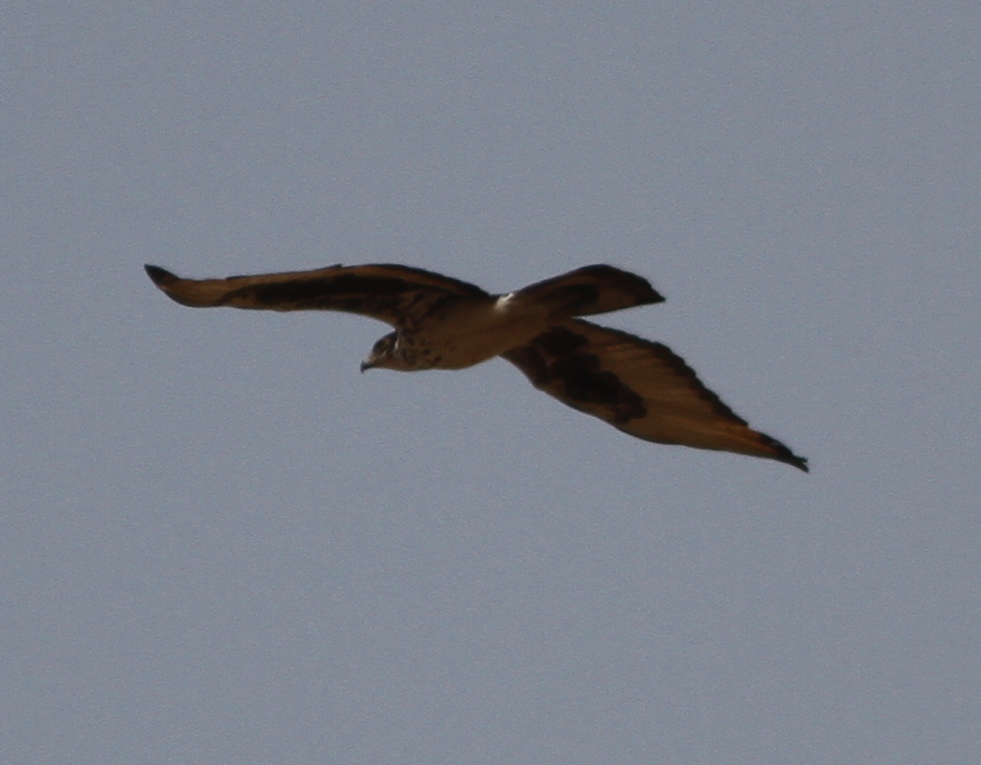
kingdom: Animalia
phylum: Chordata
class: Aves
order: Accipitriformes
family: Accipitridae
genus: Aquila
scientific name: Aquila spilogaster
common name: African hawk-eagle
